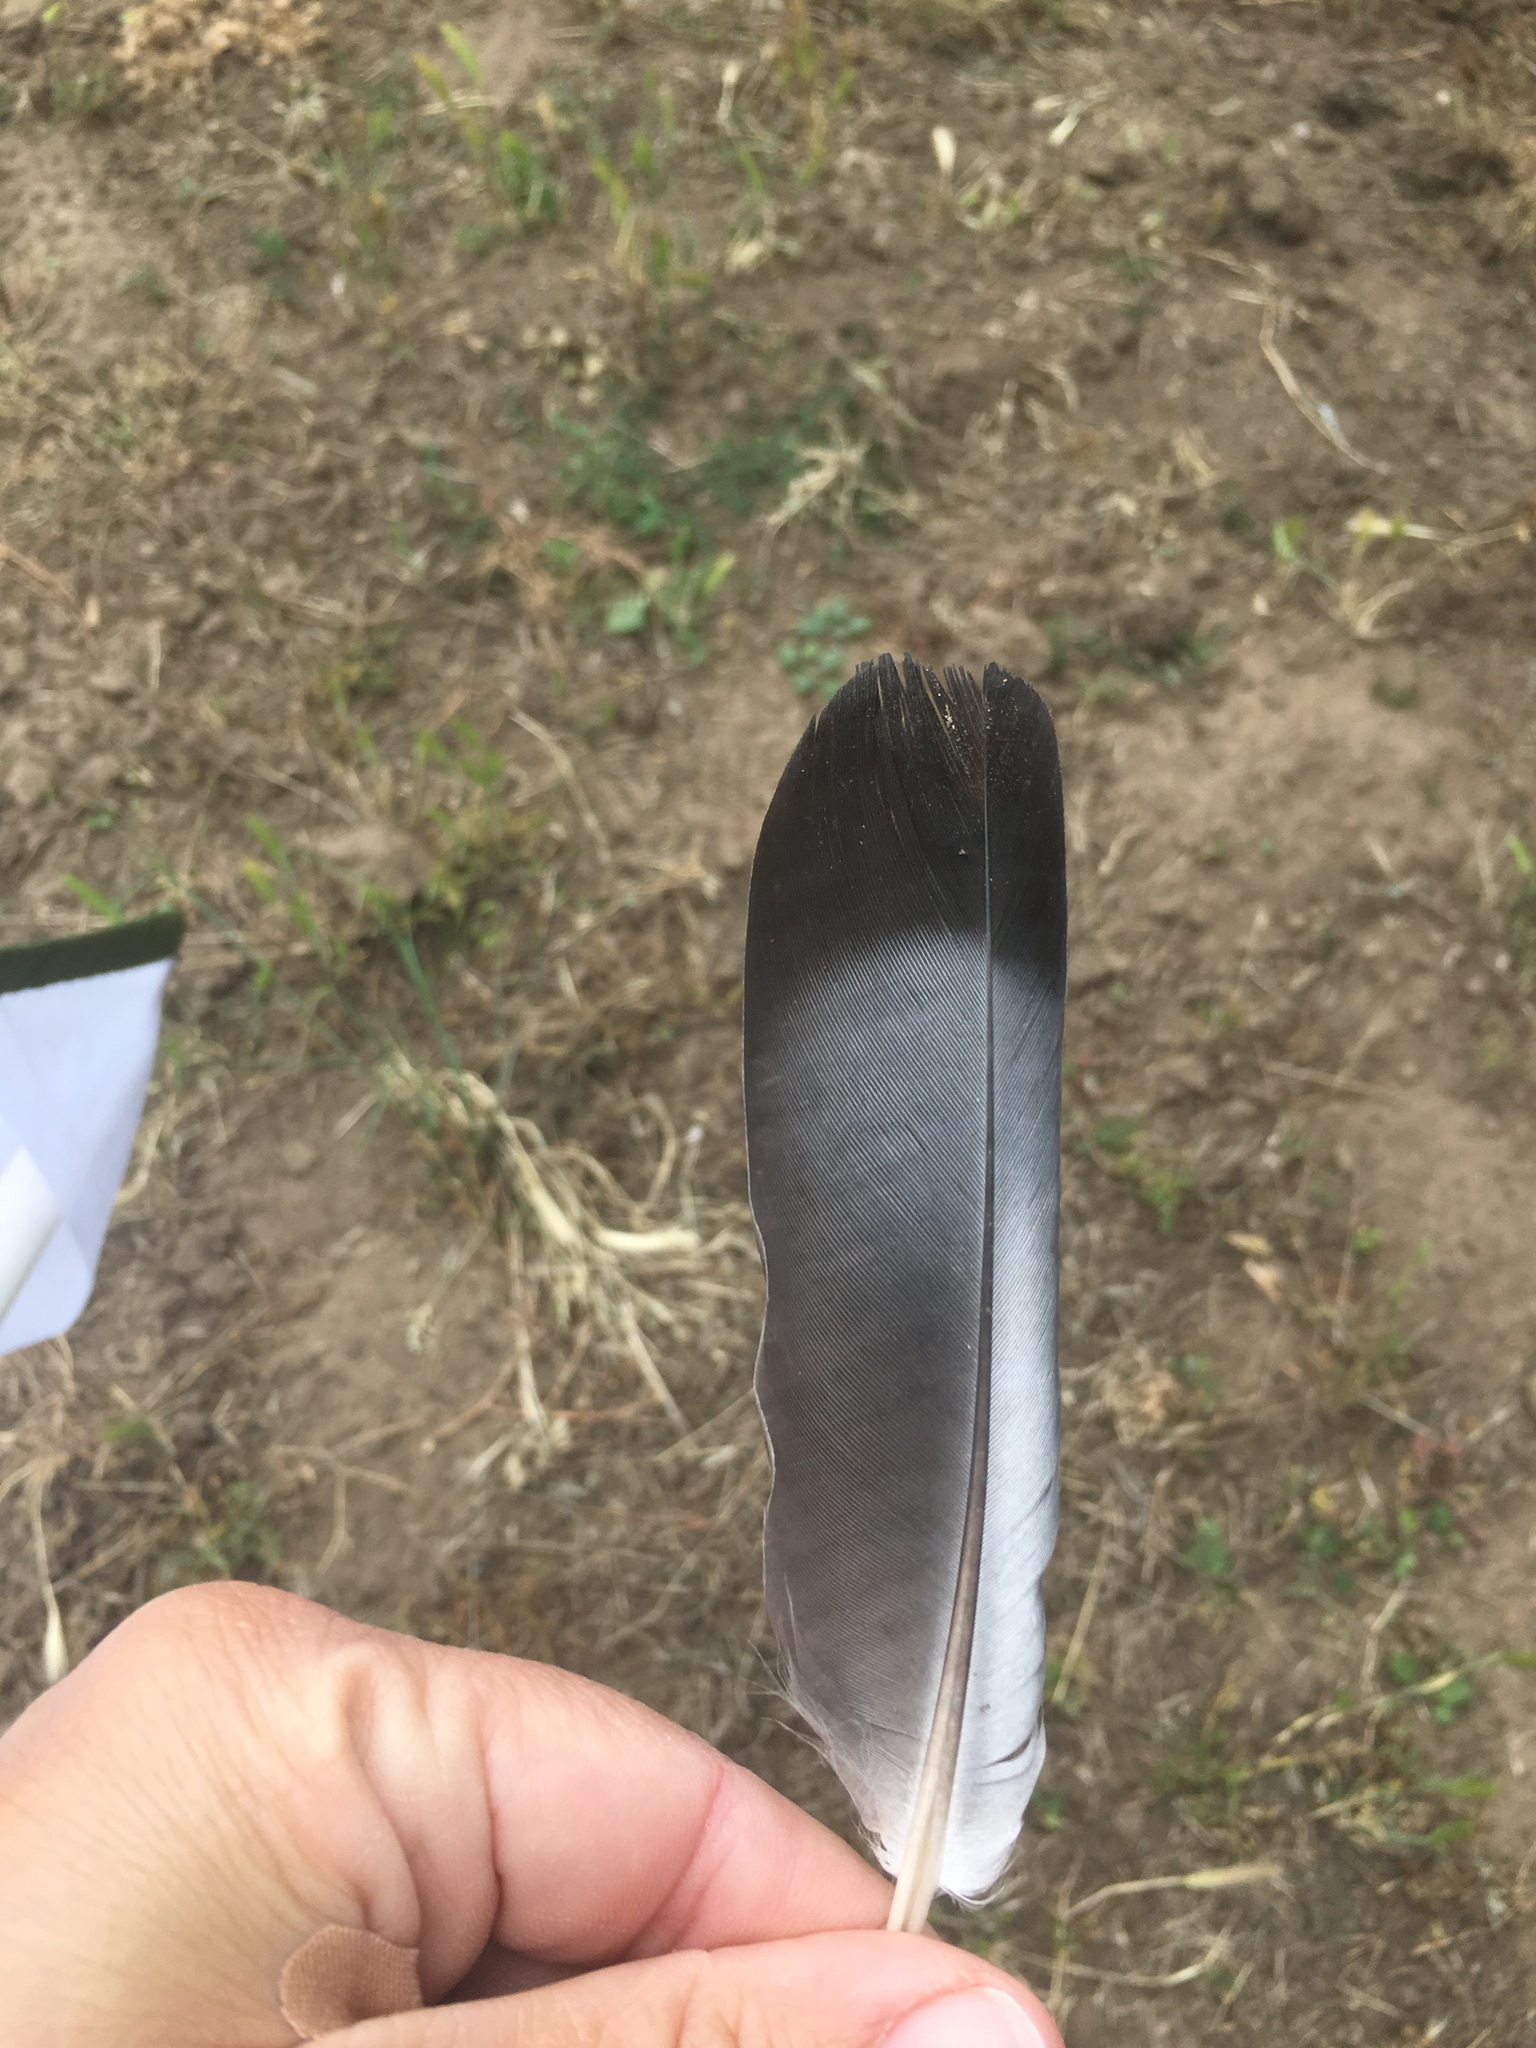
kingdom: Animalia
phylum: Chordata
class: Aves
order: Columbiformes
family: Columbidae
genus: Columba
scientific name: Columba livia
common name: Rock pigeon
